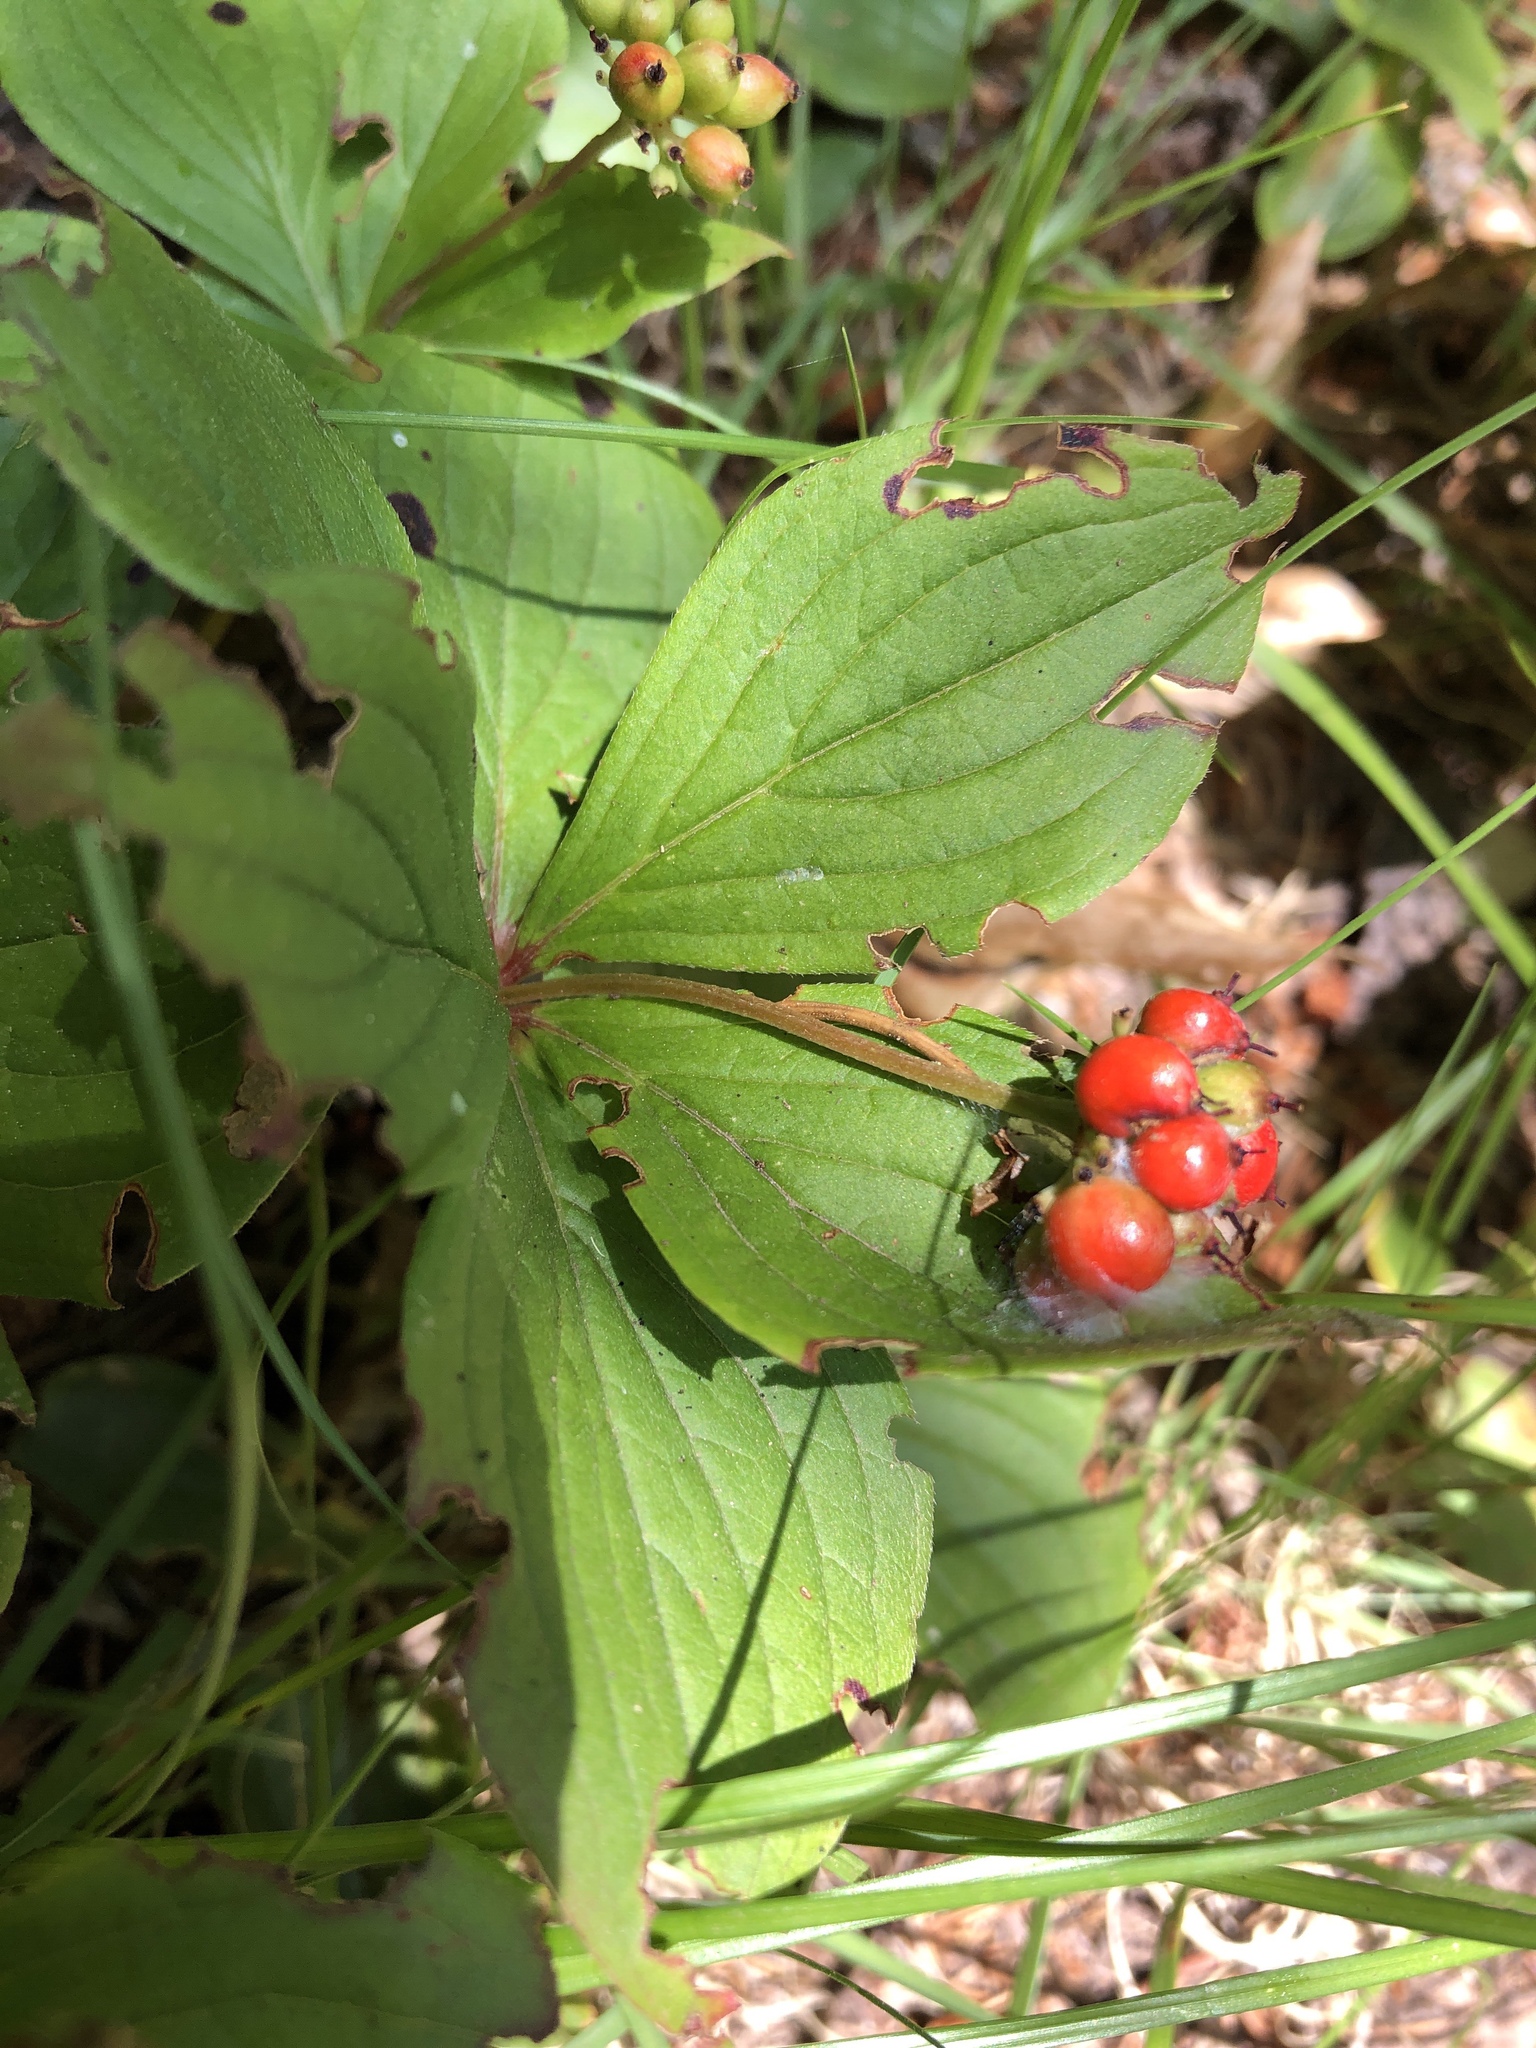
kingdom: Plantae
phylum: Tracheophyta
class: Magnoliopsida
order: Cornales
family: Cornaceae
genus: Cornus
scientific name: Cornus canadensis
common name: Creeping dogwood
